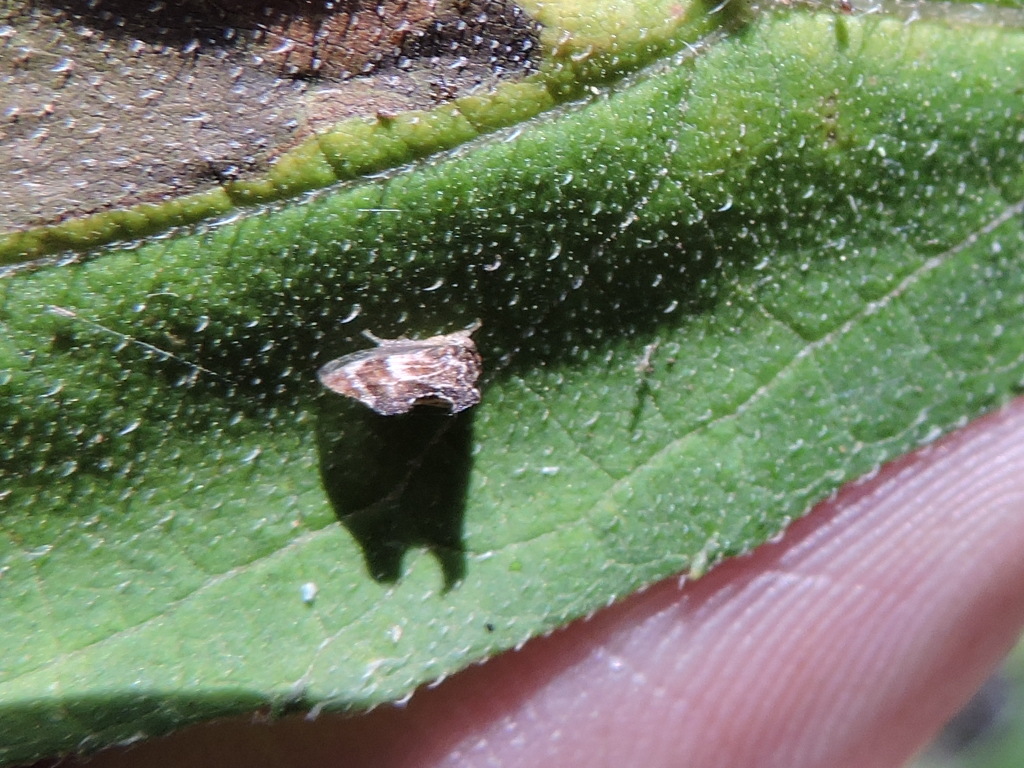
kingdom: Animalia
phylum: Arthropoda
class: Insecta
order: Hemiptera
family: Membracidae
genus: Entylia
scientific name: Entylia carinata
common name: Keeled treehopper
